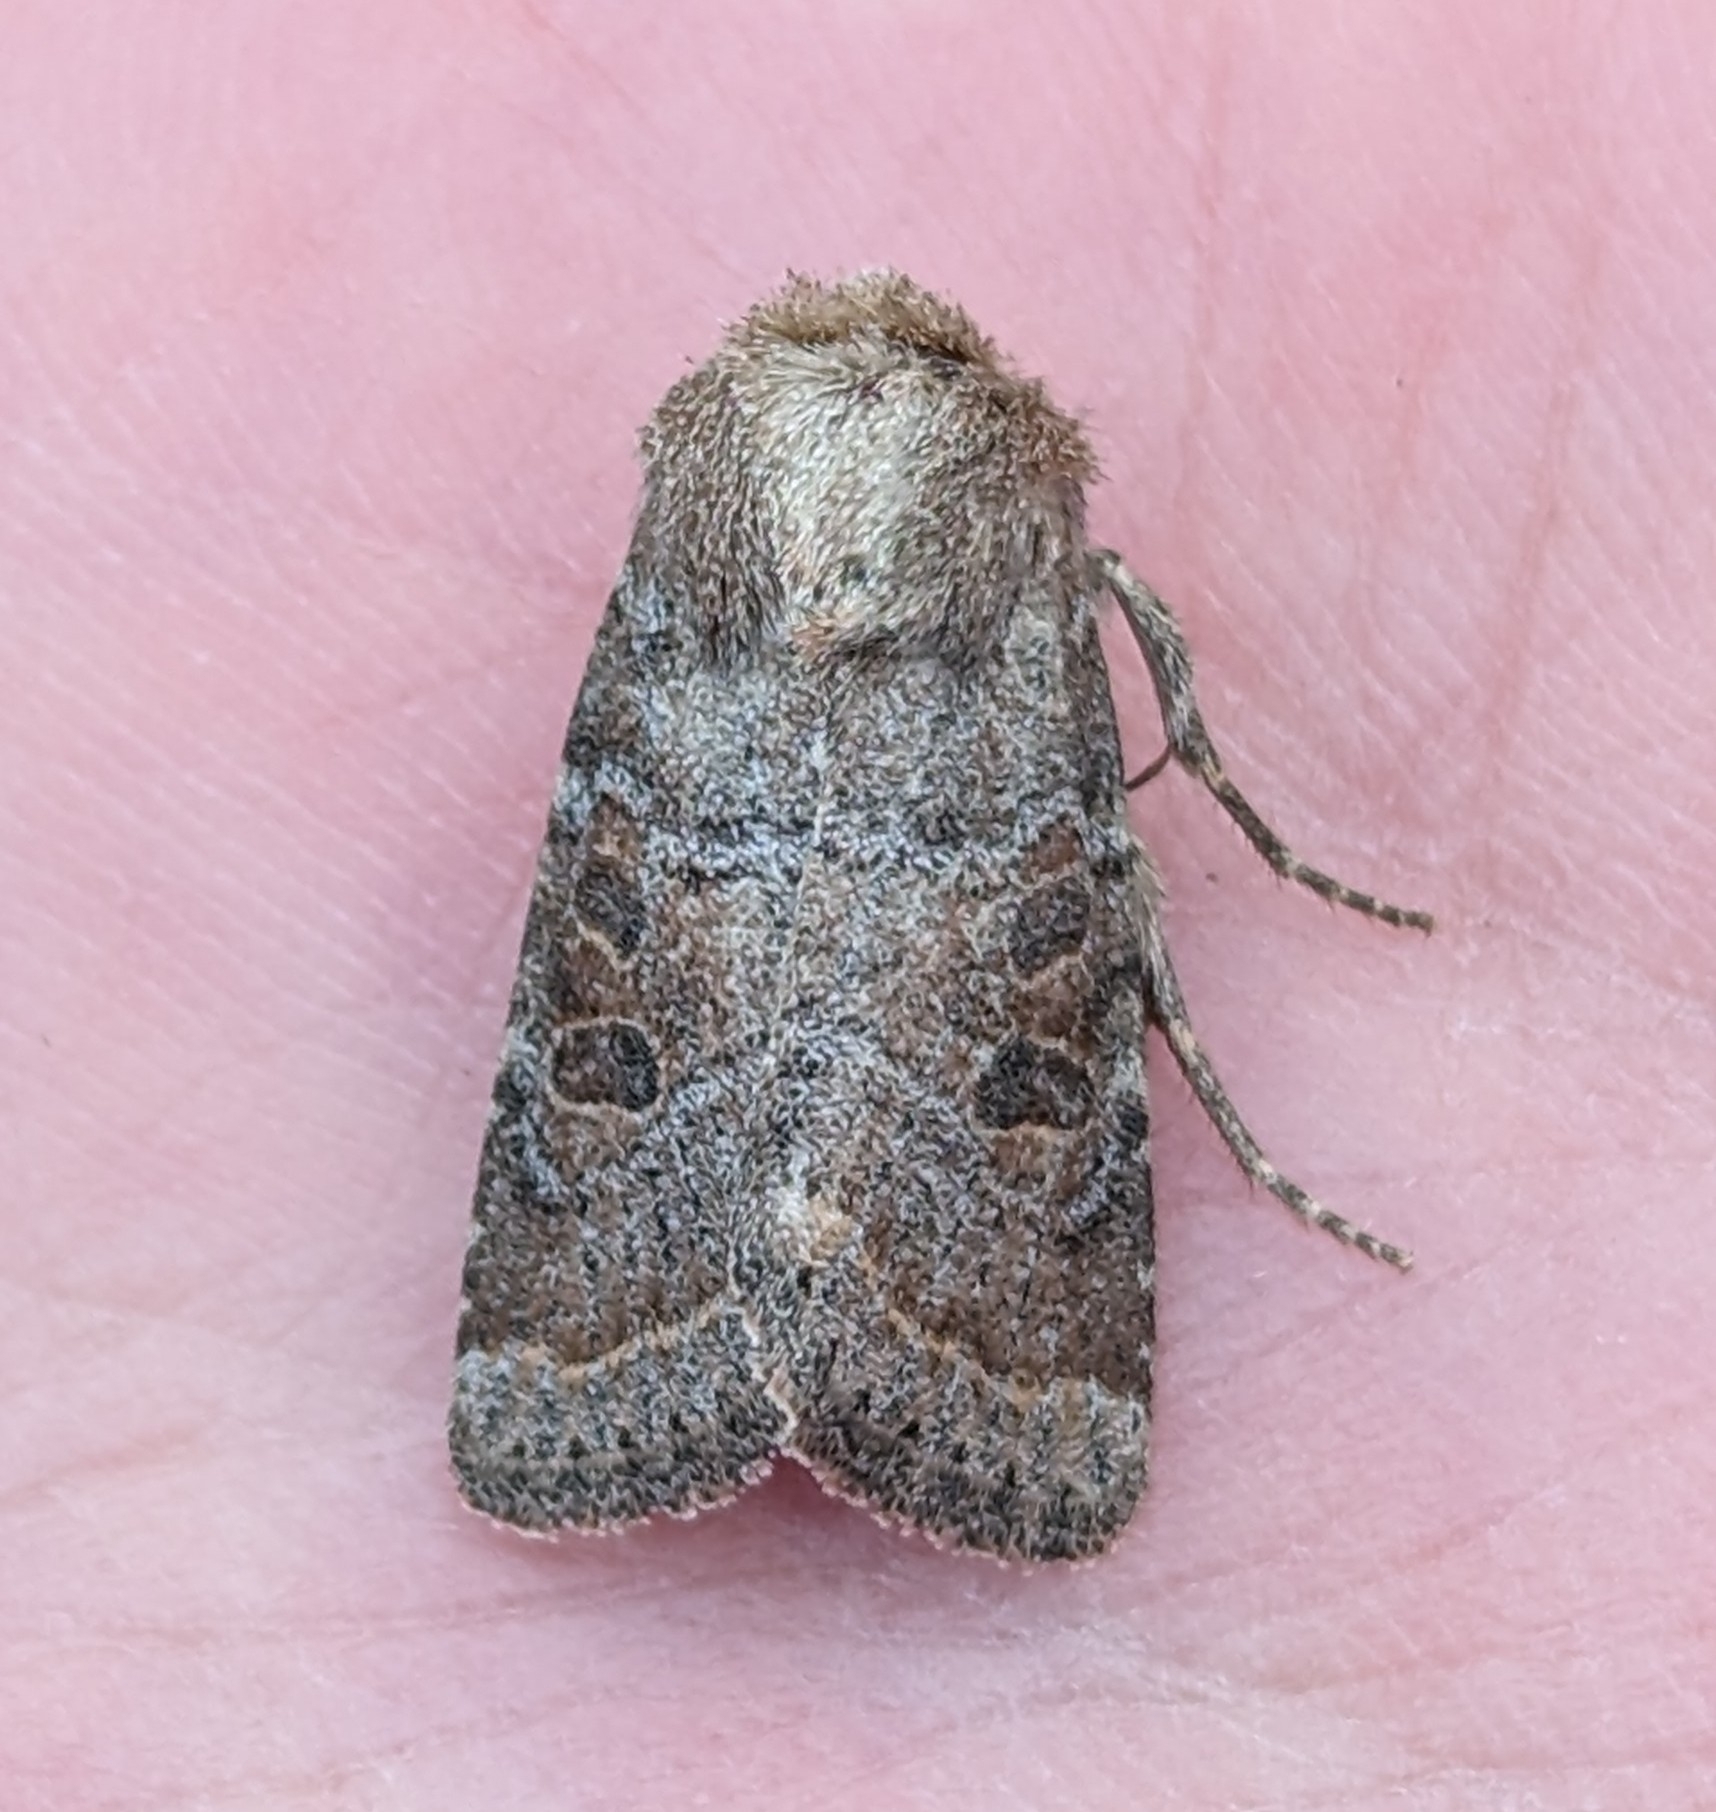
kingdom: Animalia
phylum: Arthropoda
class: Insecta
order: Lepidoptera
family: Noctuidae
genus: Trichopolia
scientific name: Trichopolia
